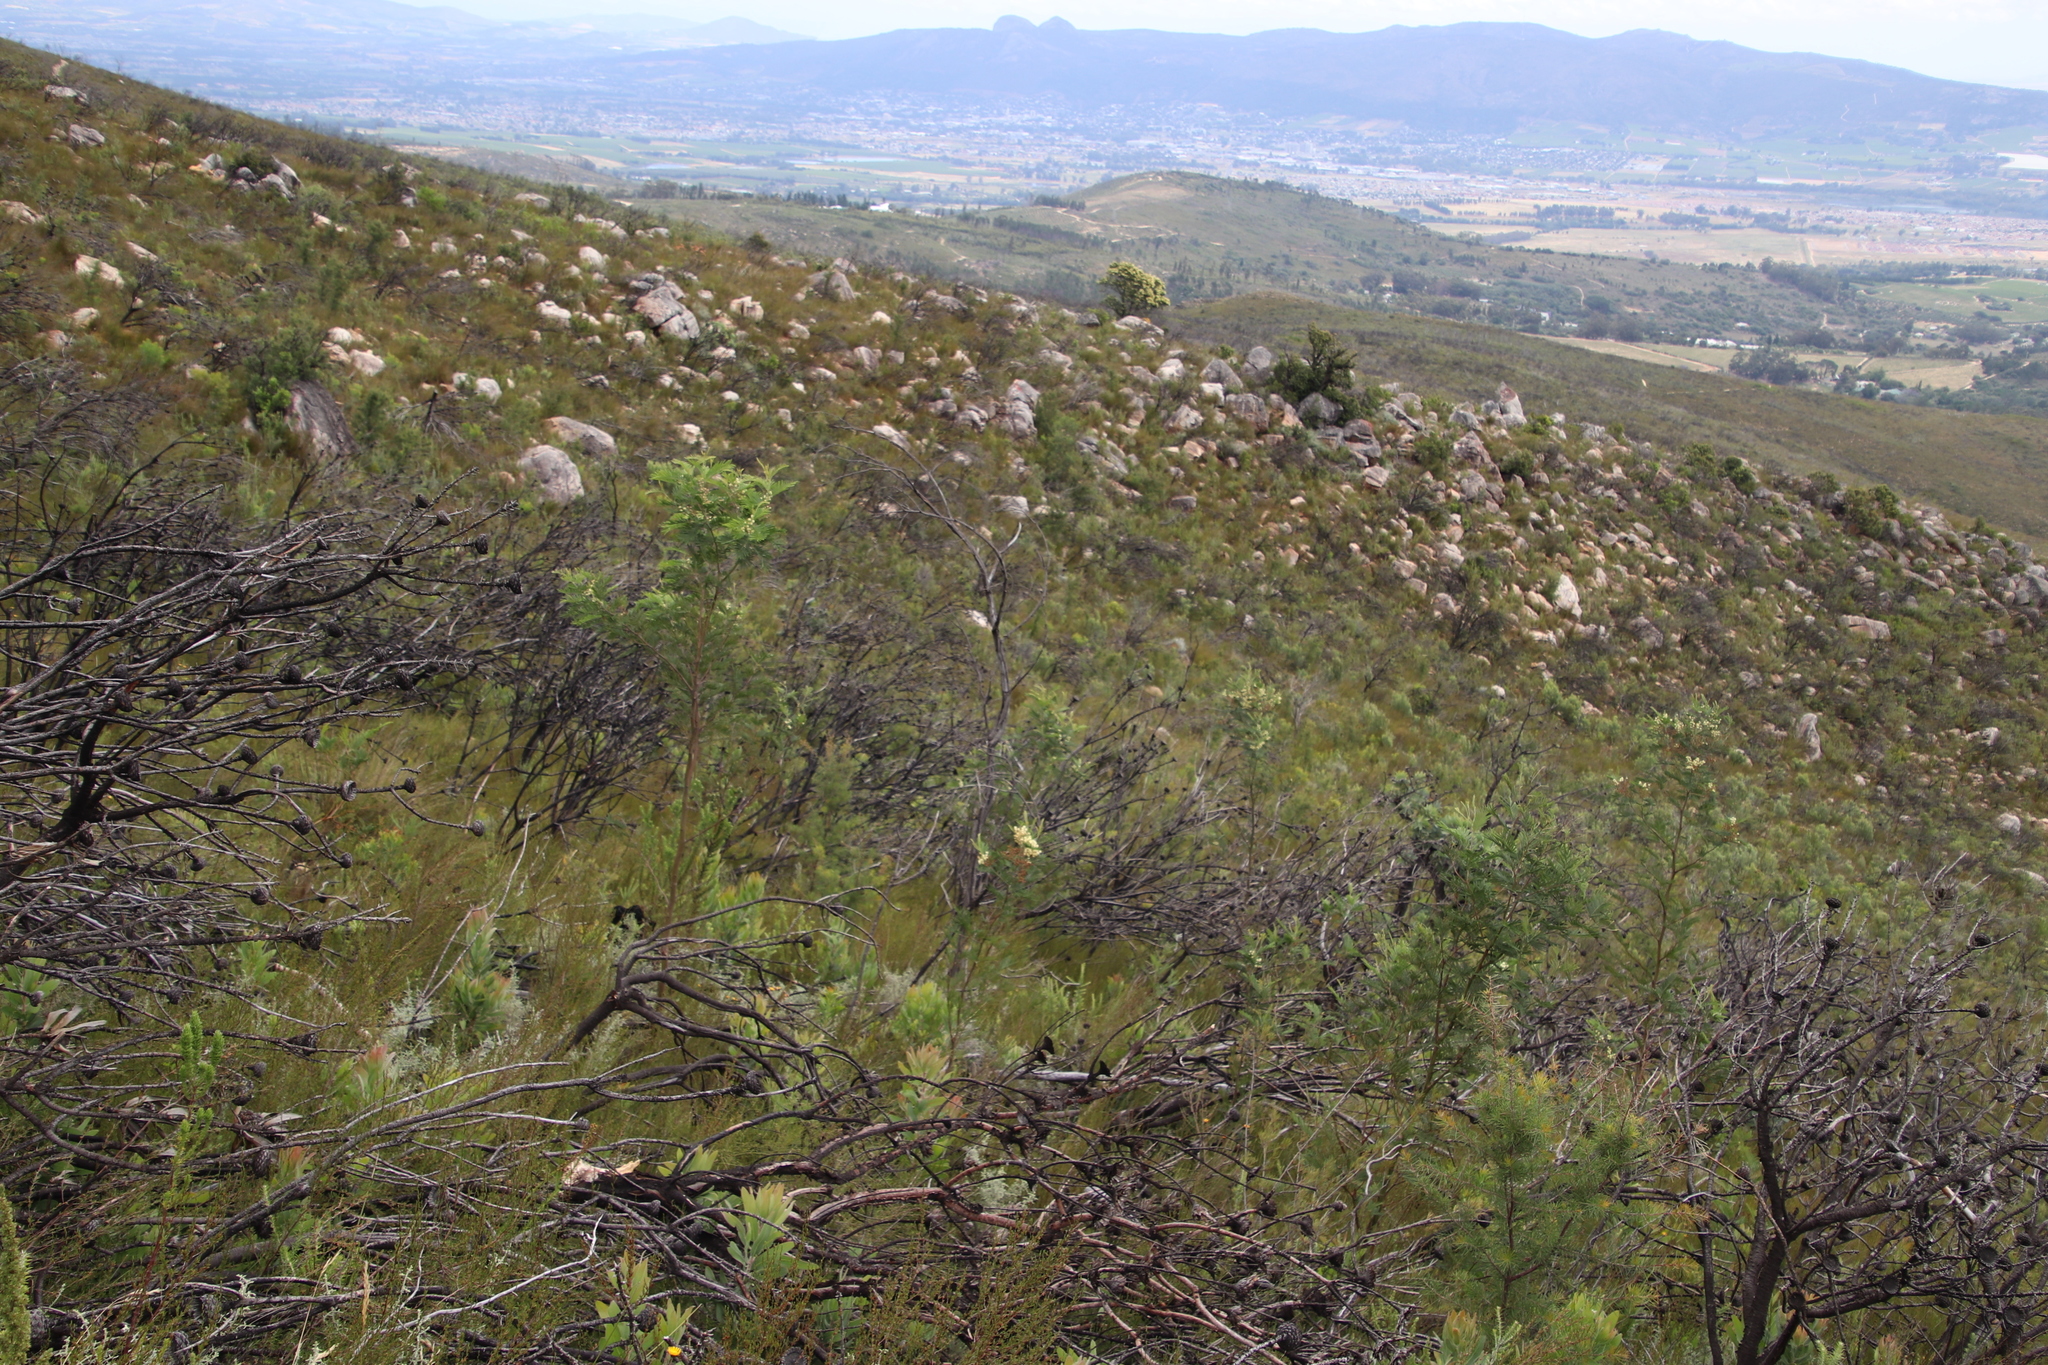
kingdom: Plantae
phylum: Tracheophyta
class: Magnoliopsida
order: Proteales
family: Proteaceae
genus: Protea
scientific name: Protea laurifolia
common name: Grey-leaf sugarbsh
